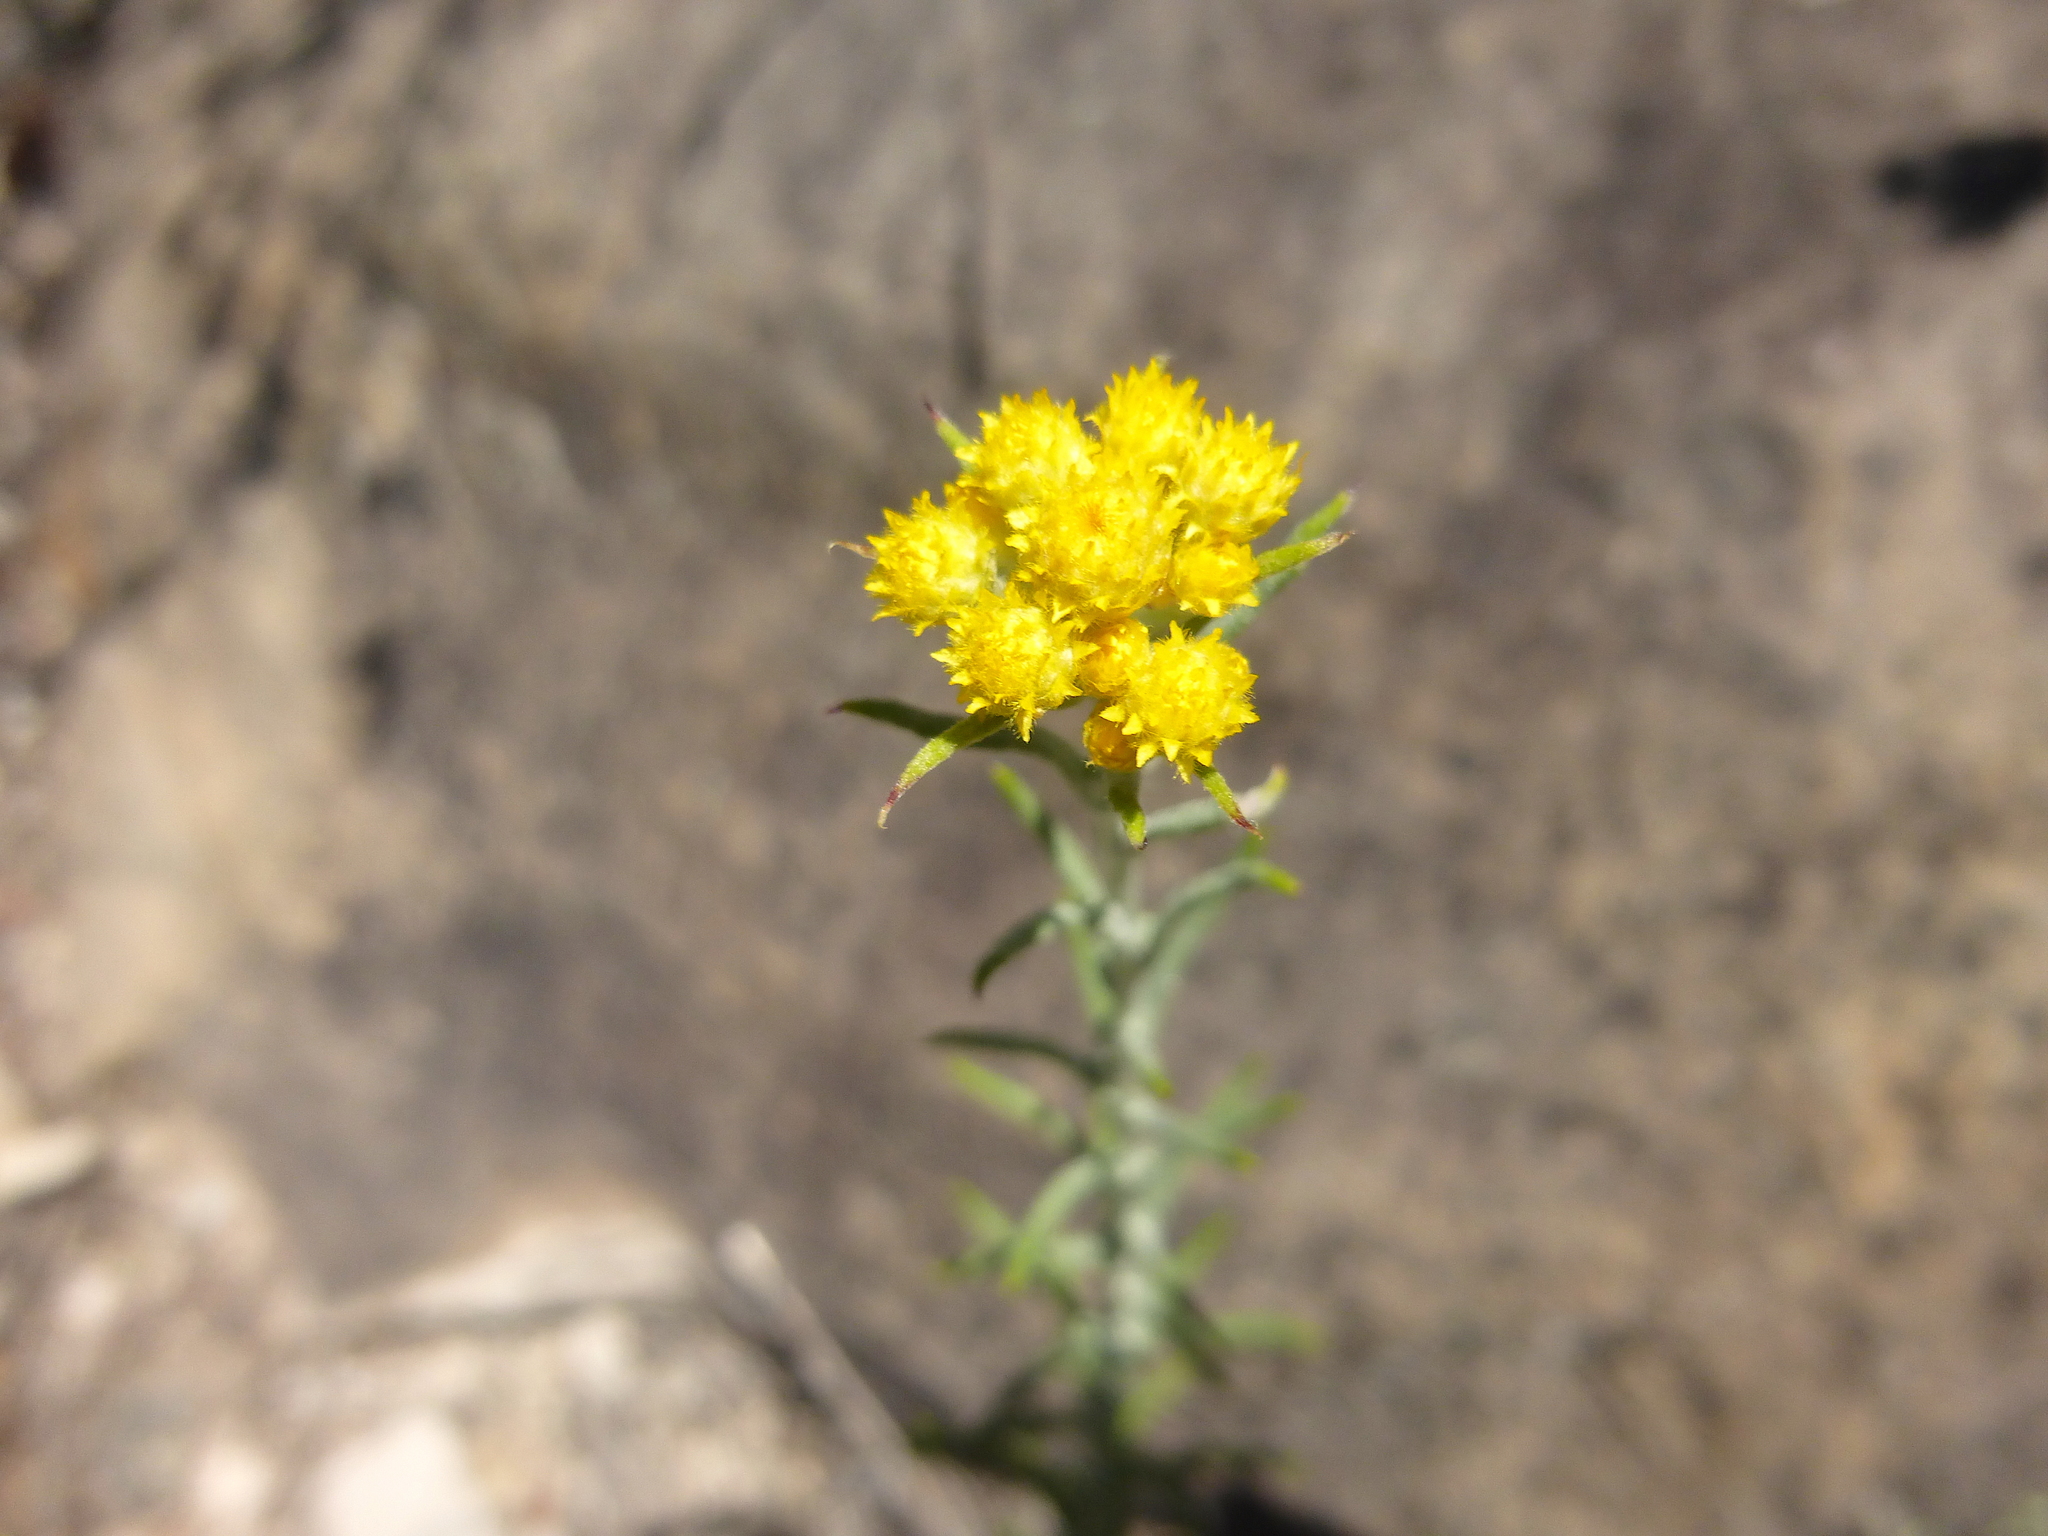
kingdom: Plantae
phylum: Tracheophyta
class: Magnoliopsida
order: Asterales
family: Asteraceae
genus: Chrysocephalum
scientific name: Chrysocephalum semipapposum
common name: Clustered everlasting
